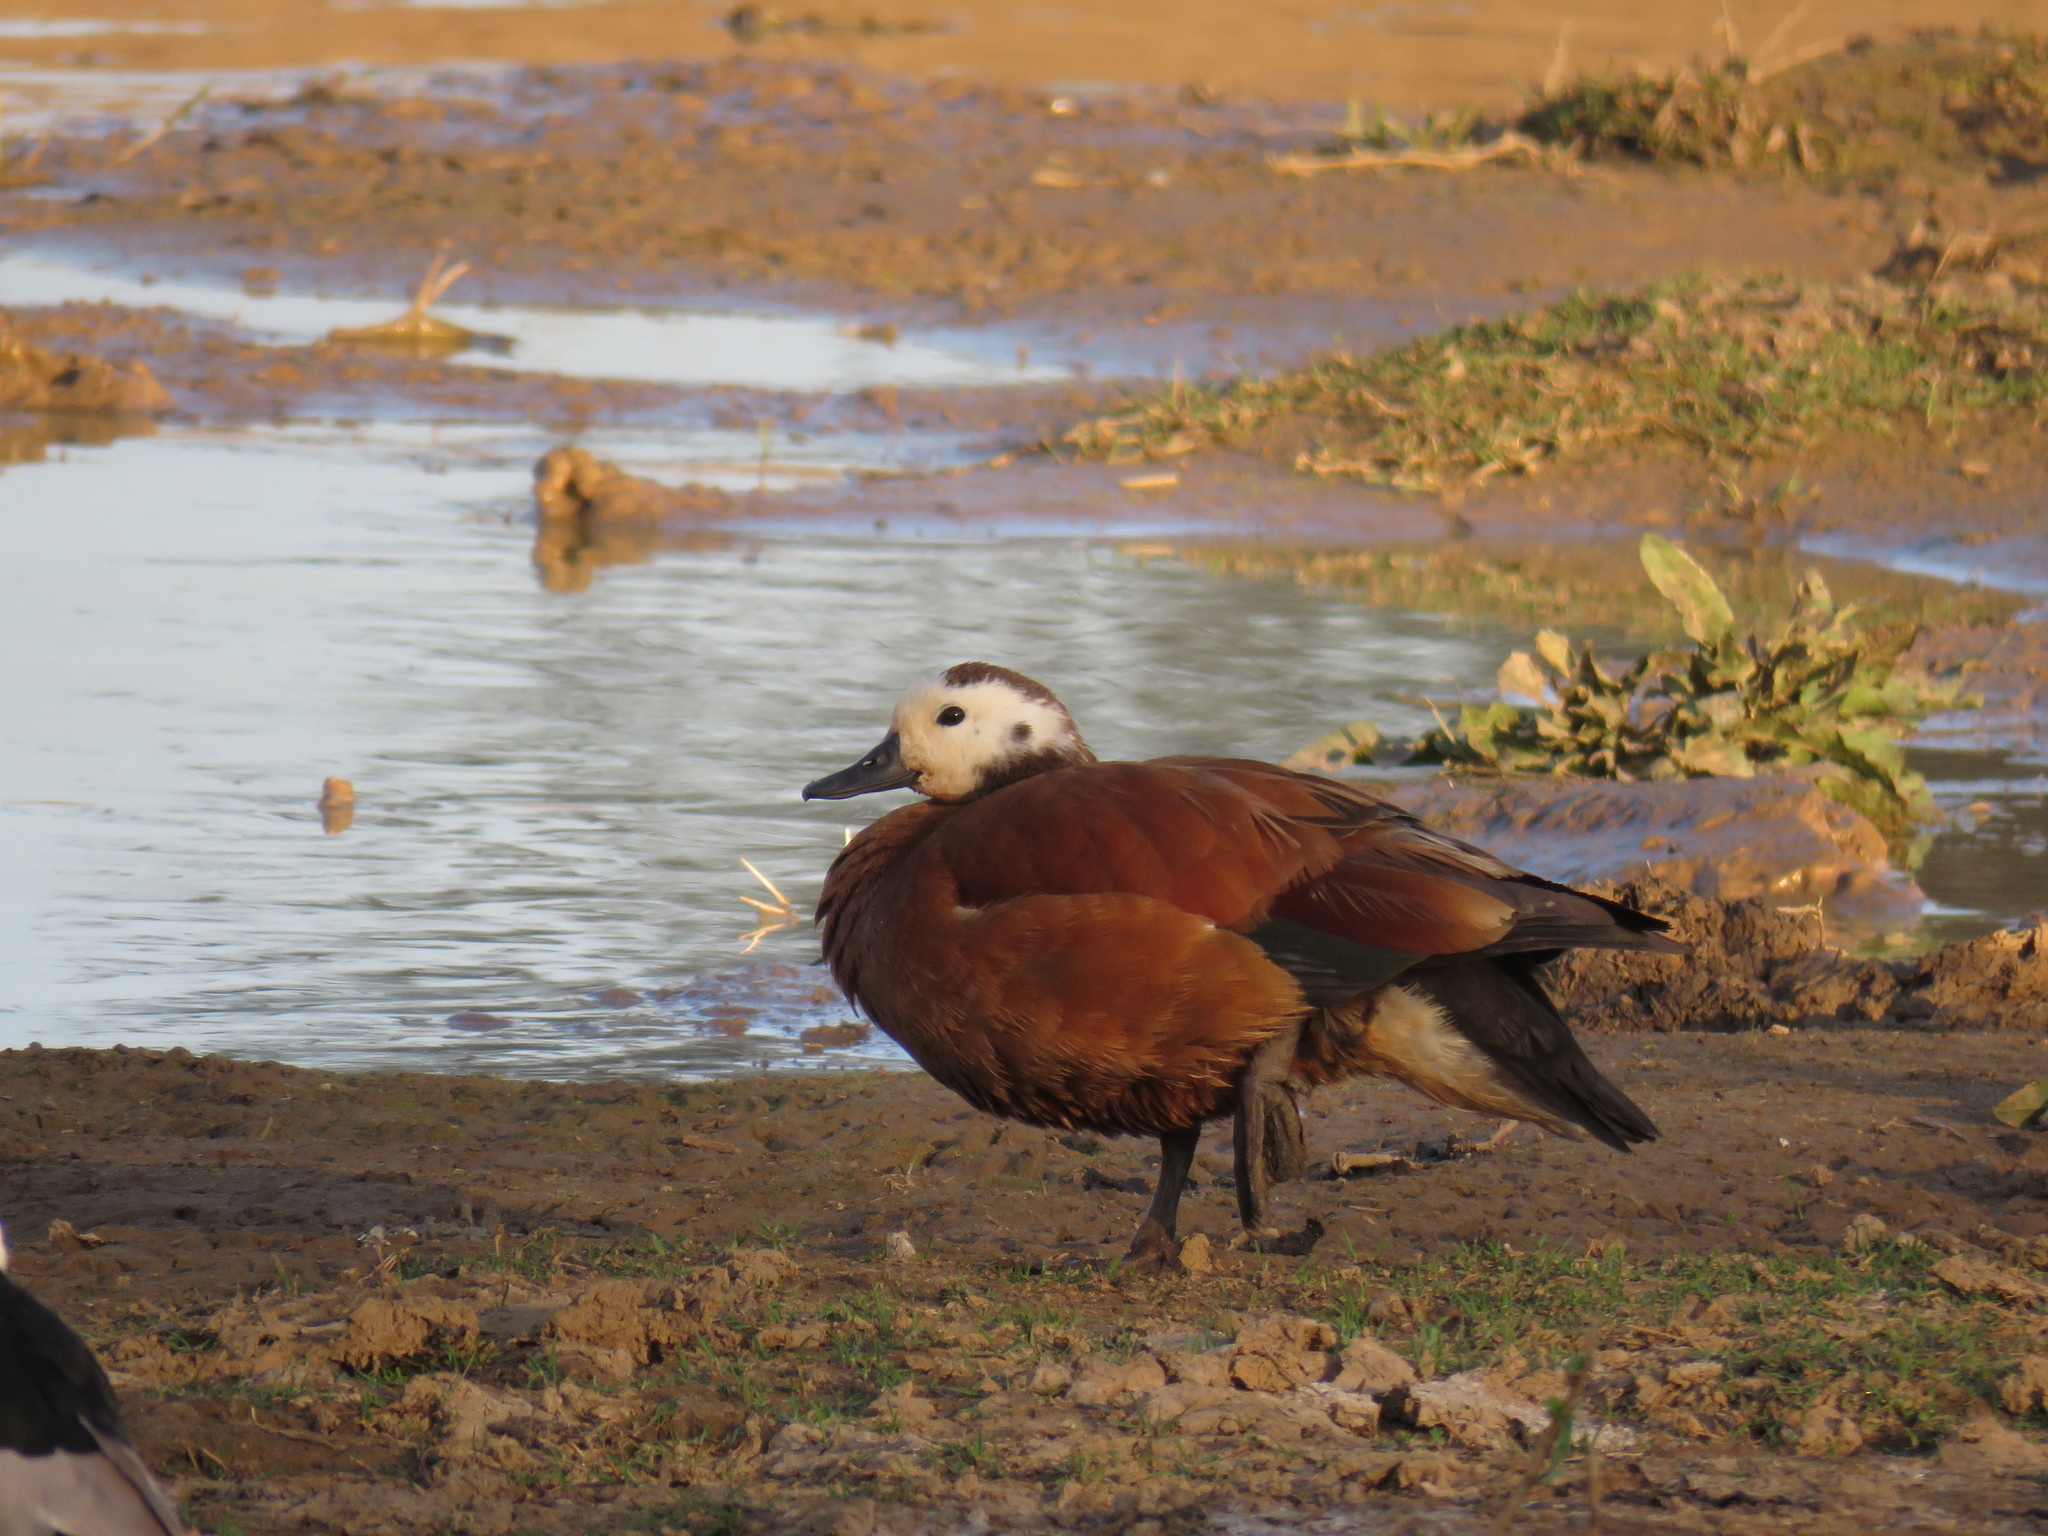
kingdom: Animalia
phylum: Chordata
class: Aves
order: Anseriformes
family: Anatidae
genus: Tadorna
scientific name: Tadorna cana
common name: South african shelduck
